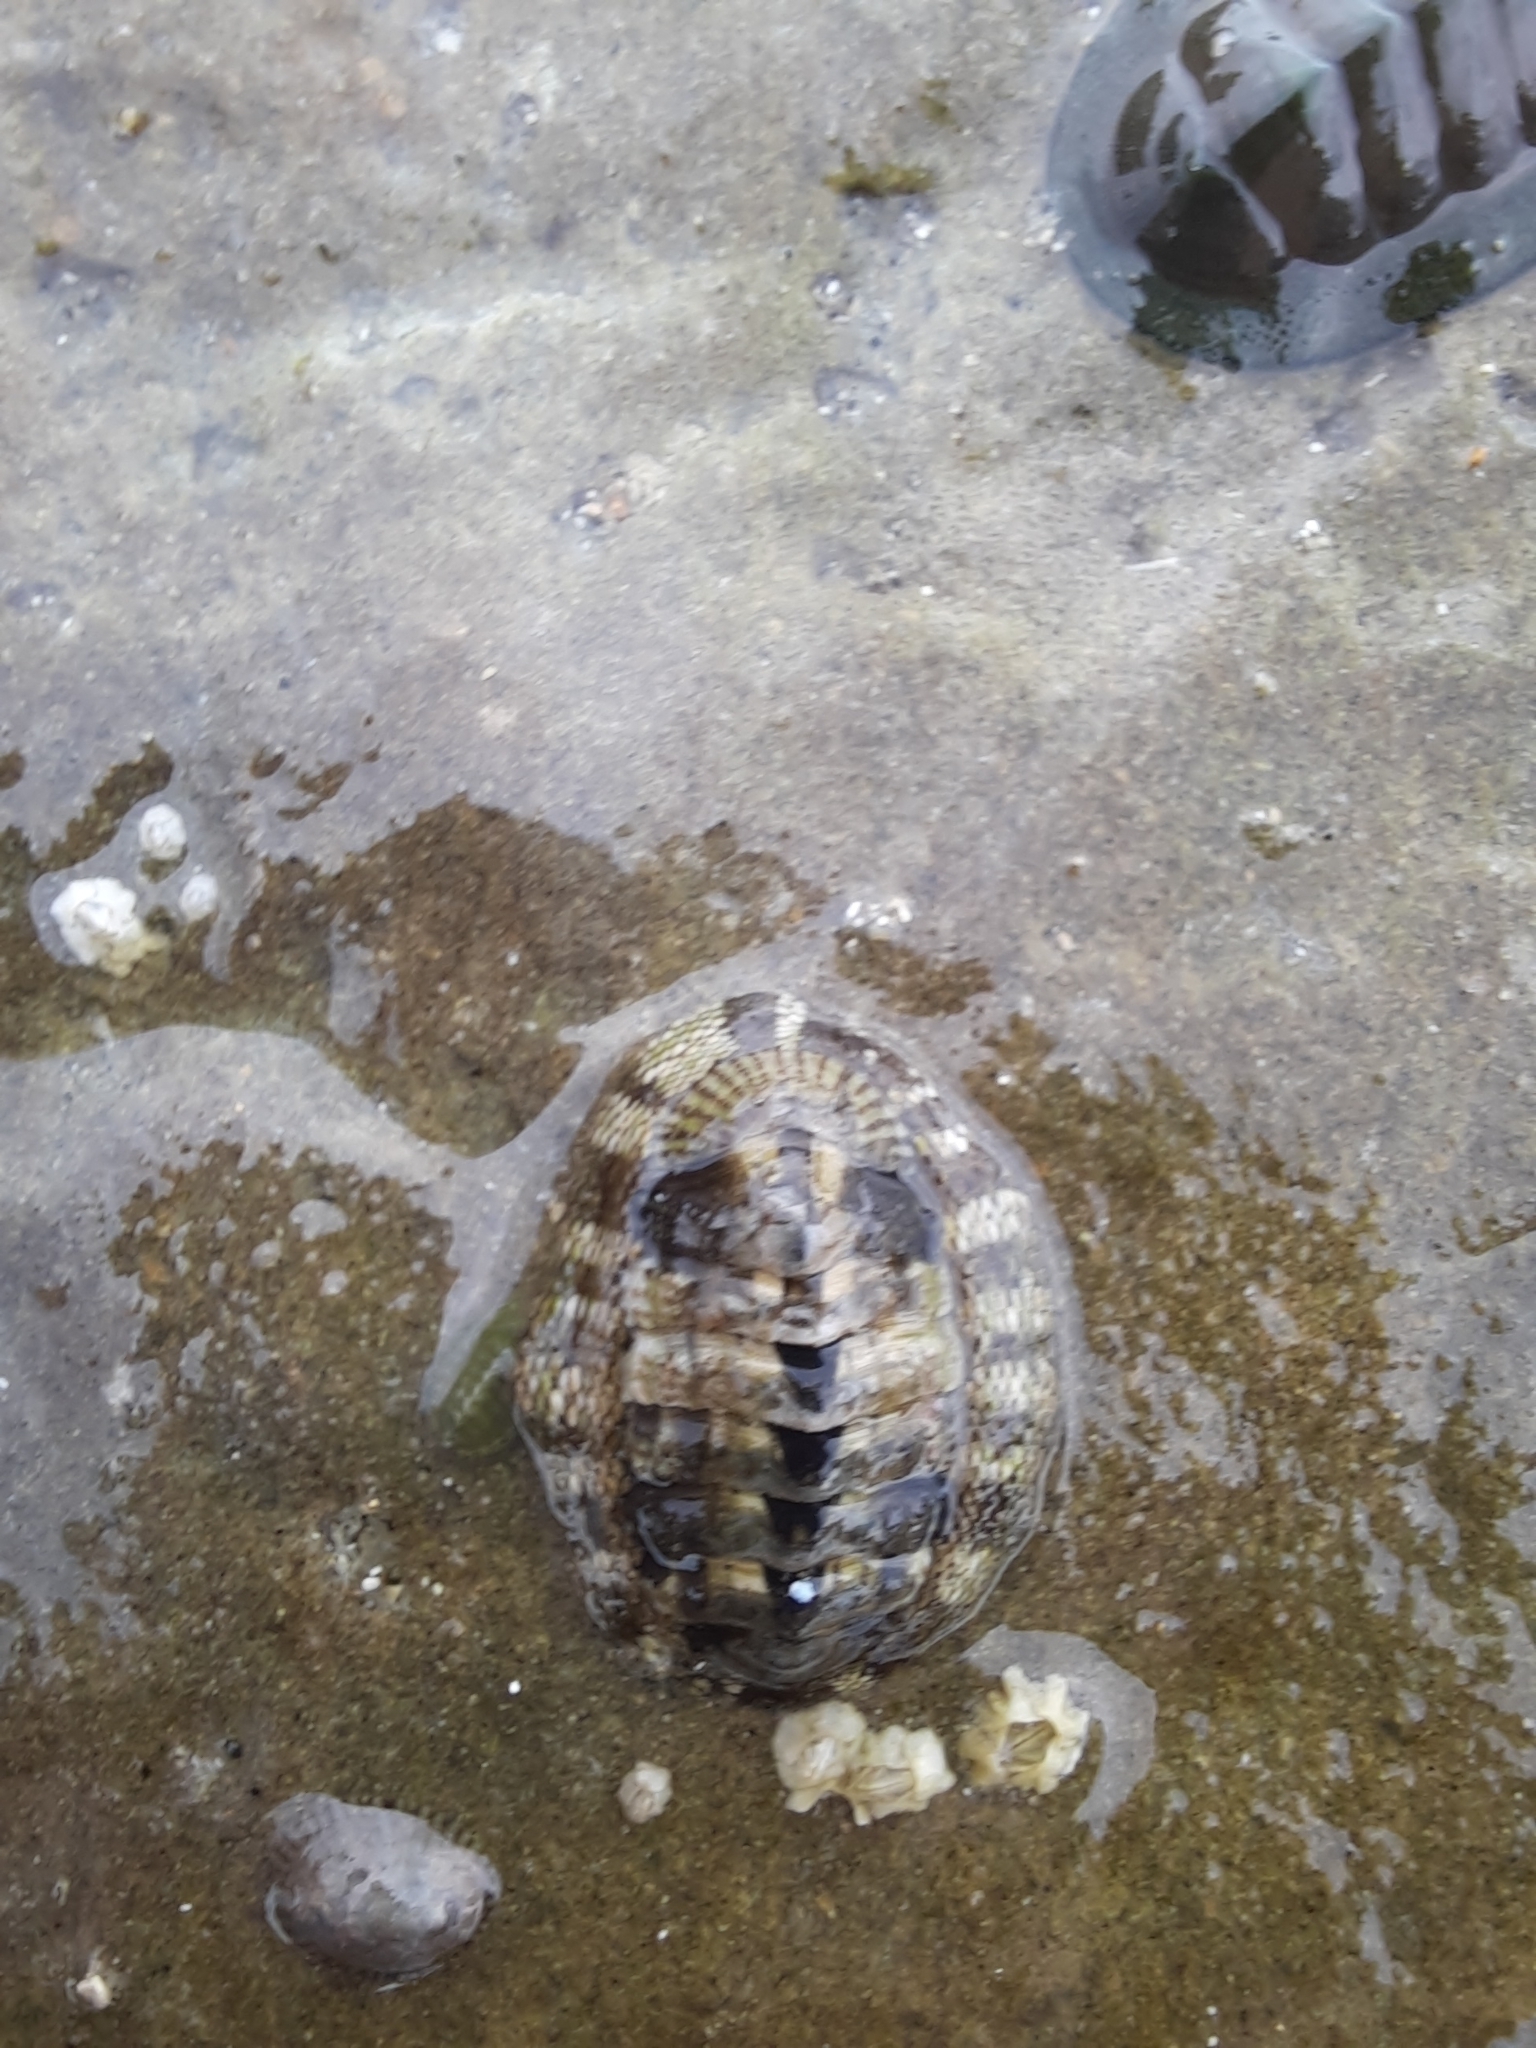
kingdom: Animalia
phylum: Mollusca
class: Polyplacophora
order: Chitonida
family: Chitonidae
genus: Sypharochiton
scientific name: Sypharochiton pelliserpentis
